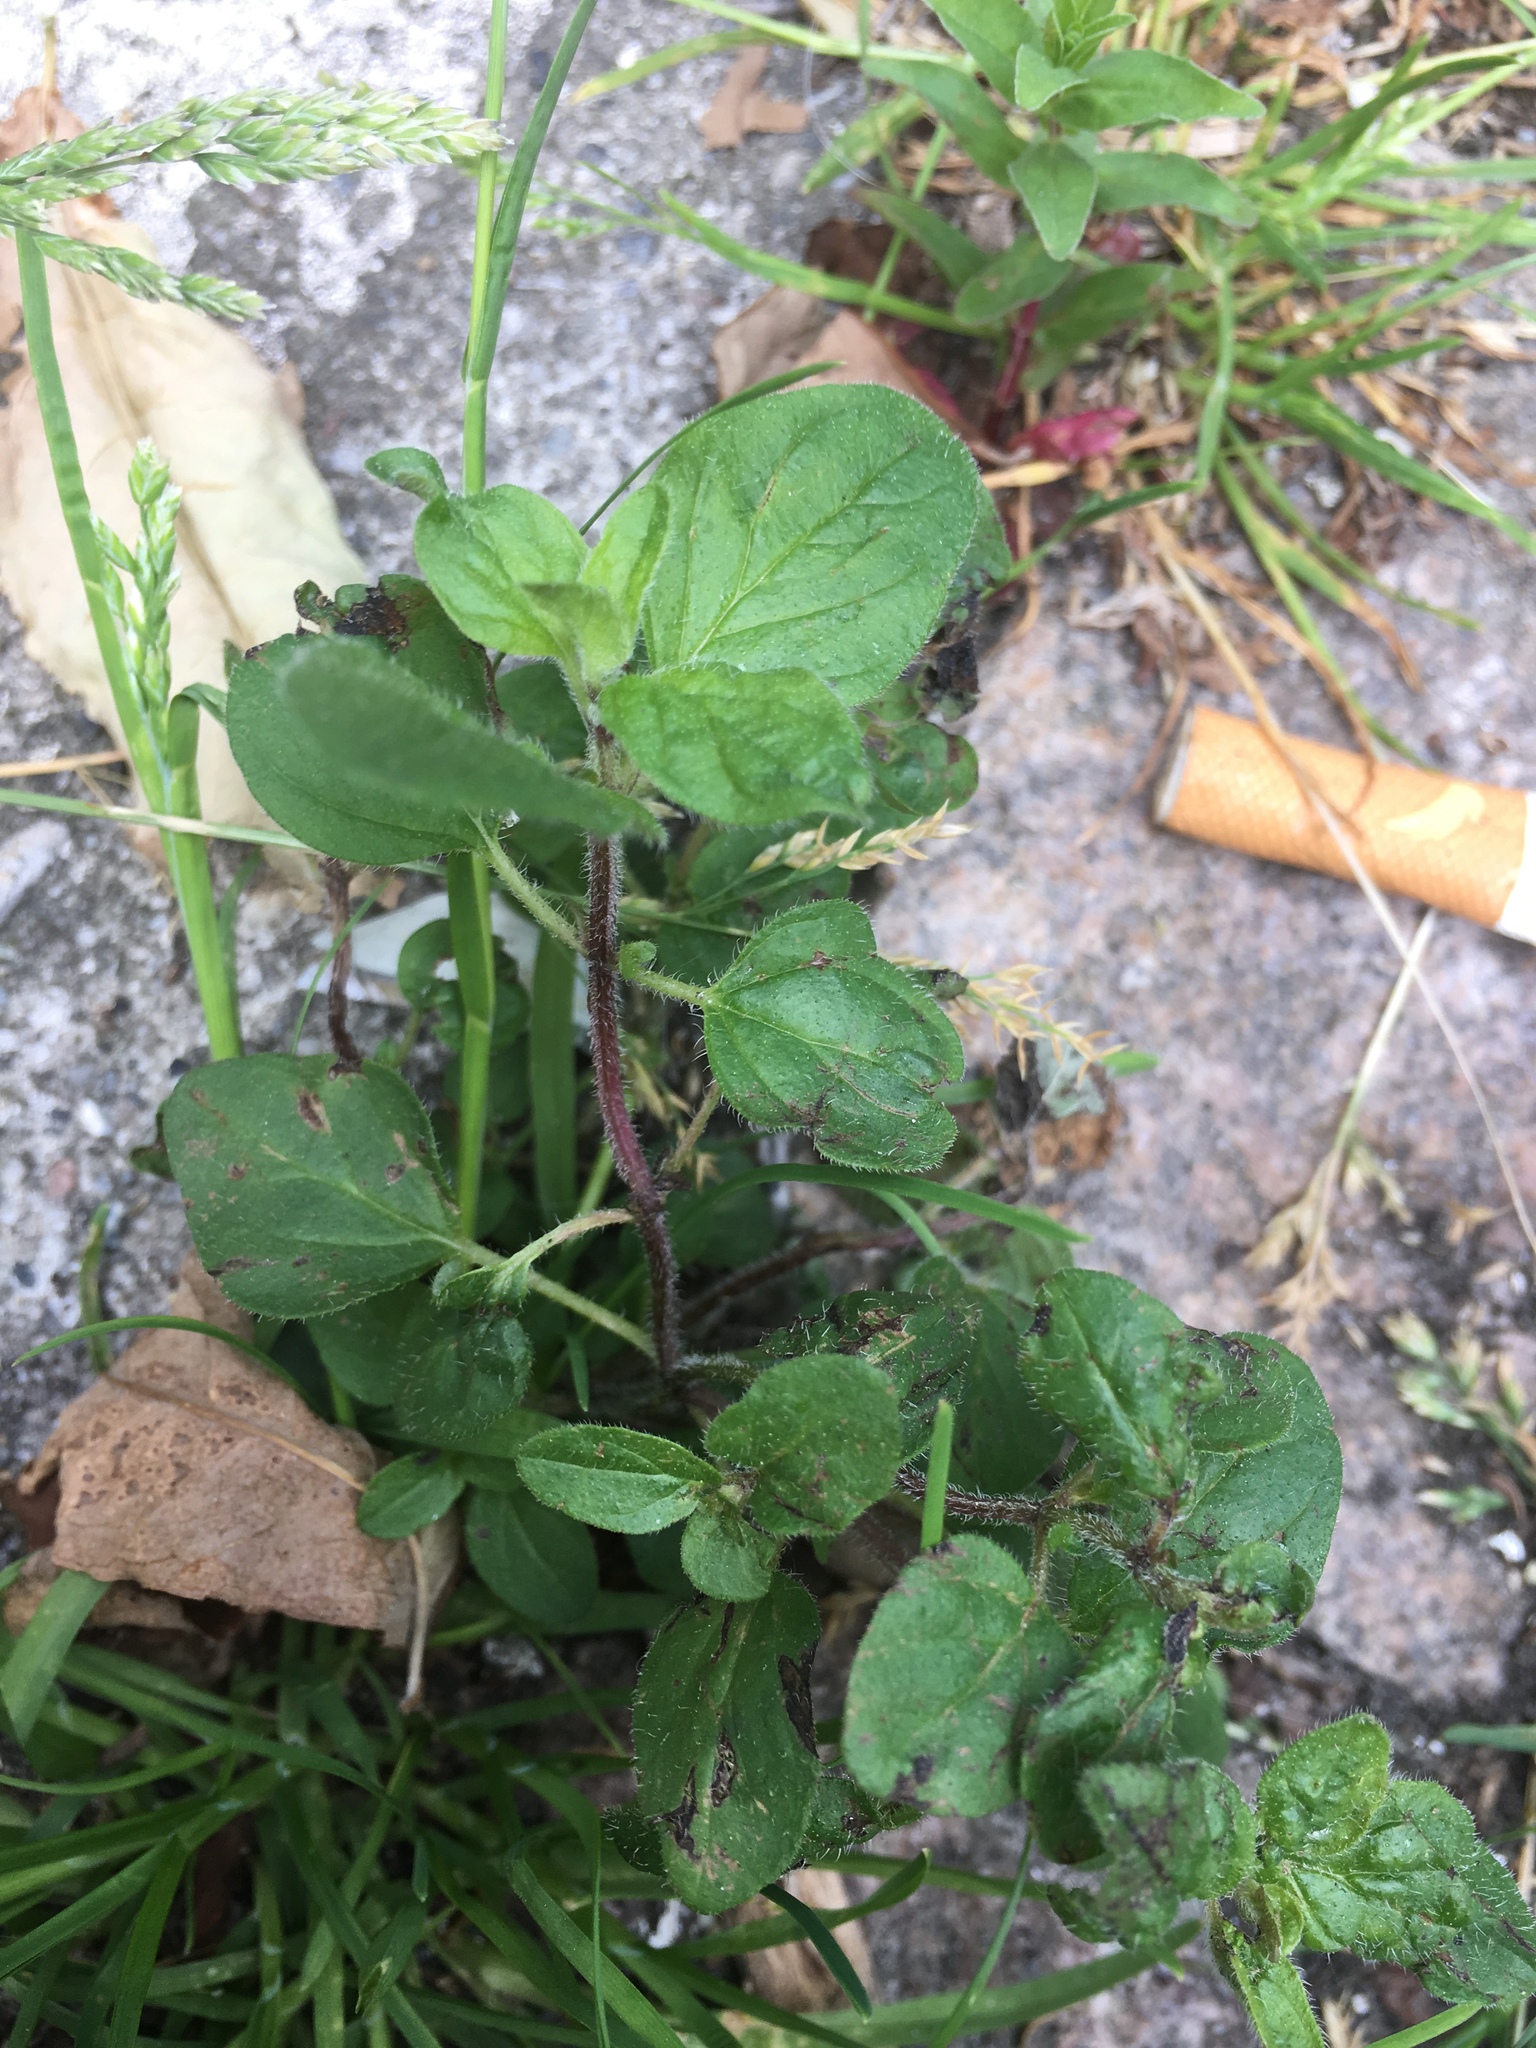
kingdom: Plantae
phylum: Tracheophyta
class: Magnoliopsida
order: Lamiales
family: Lamiaceae
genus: Origanum
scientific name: Origanum vulgare
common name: Wild marjoram
